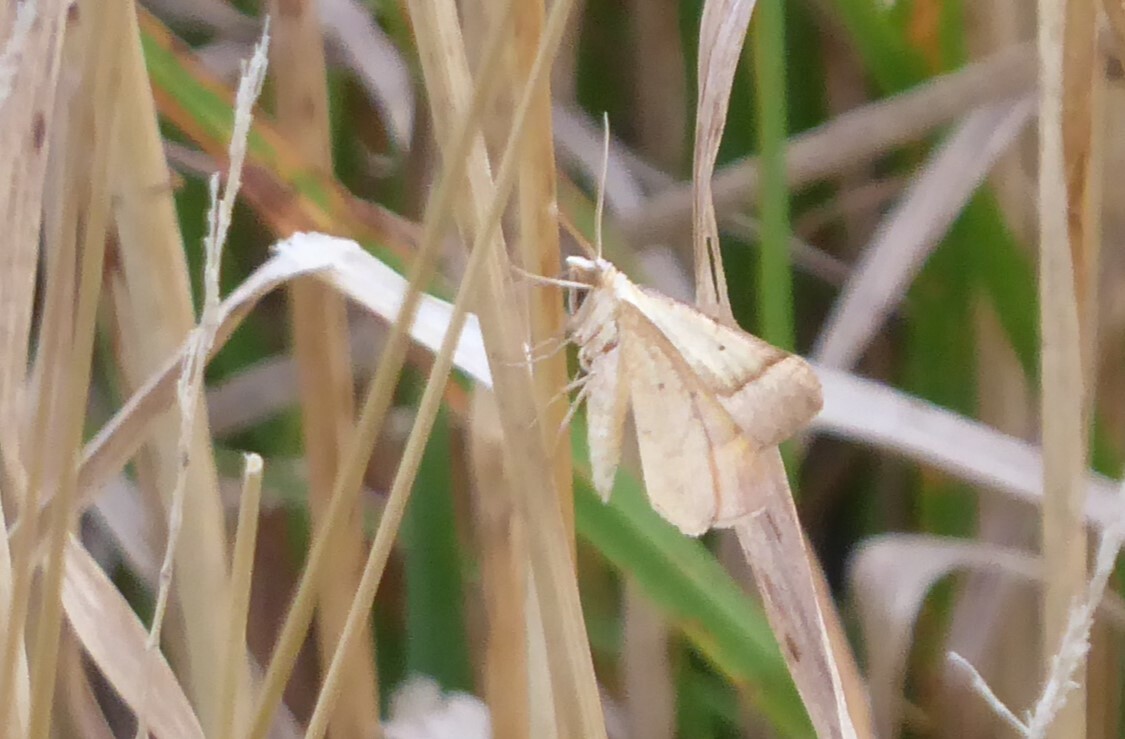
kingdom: Animalia
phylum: Arthropoda
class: Insecta
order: Lepidoptera
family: Geometridae
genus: Anachloris
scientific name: Anachloris subochraria
